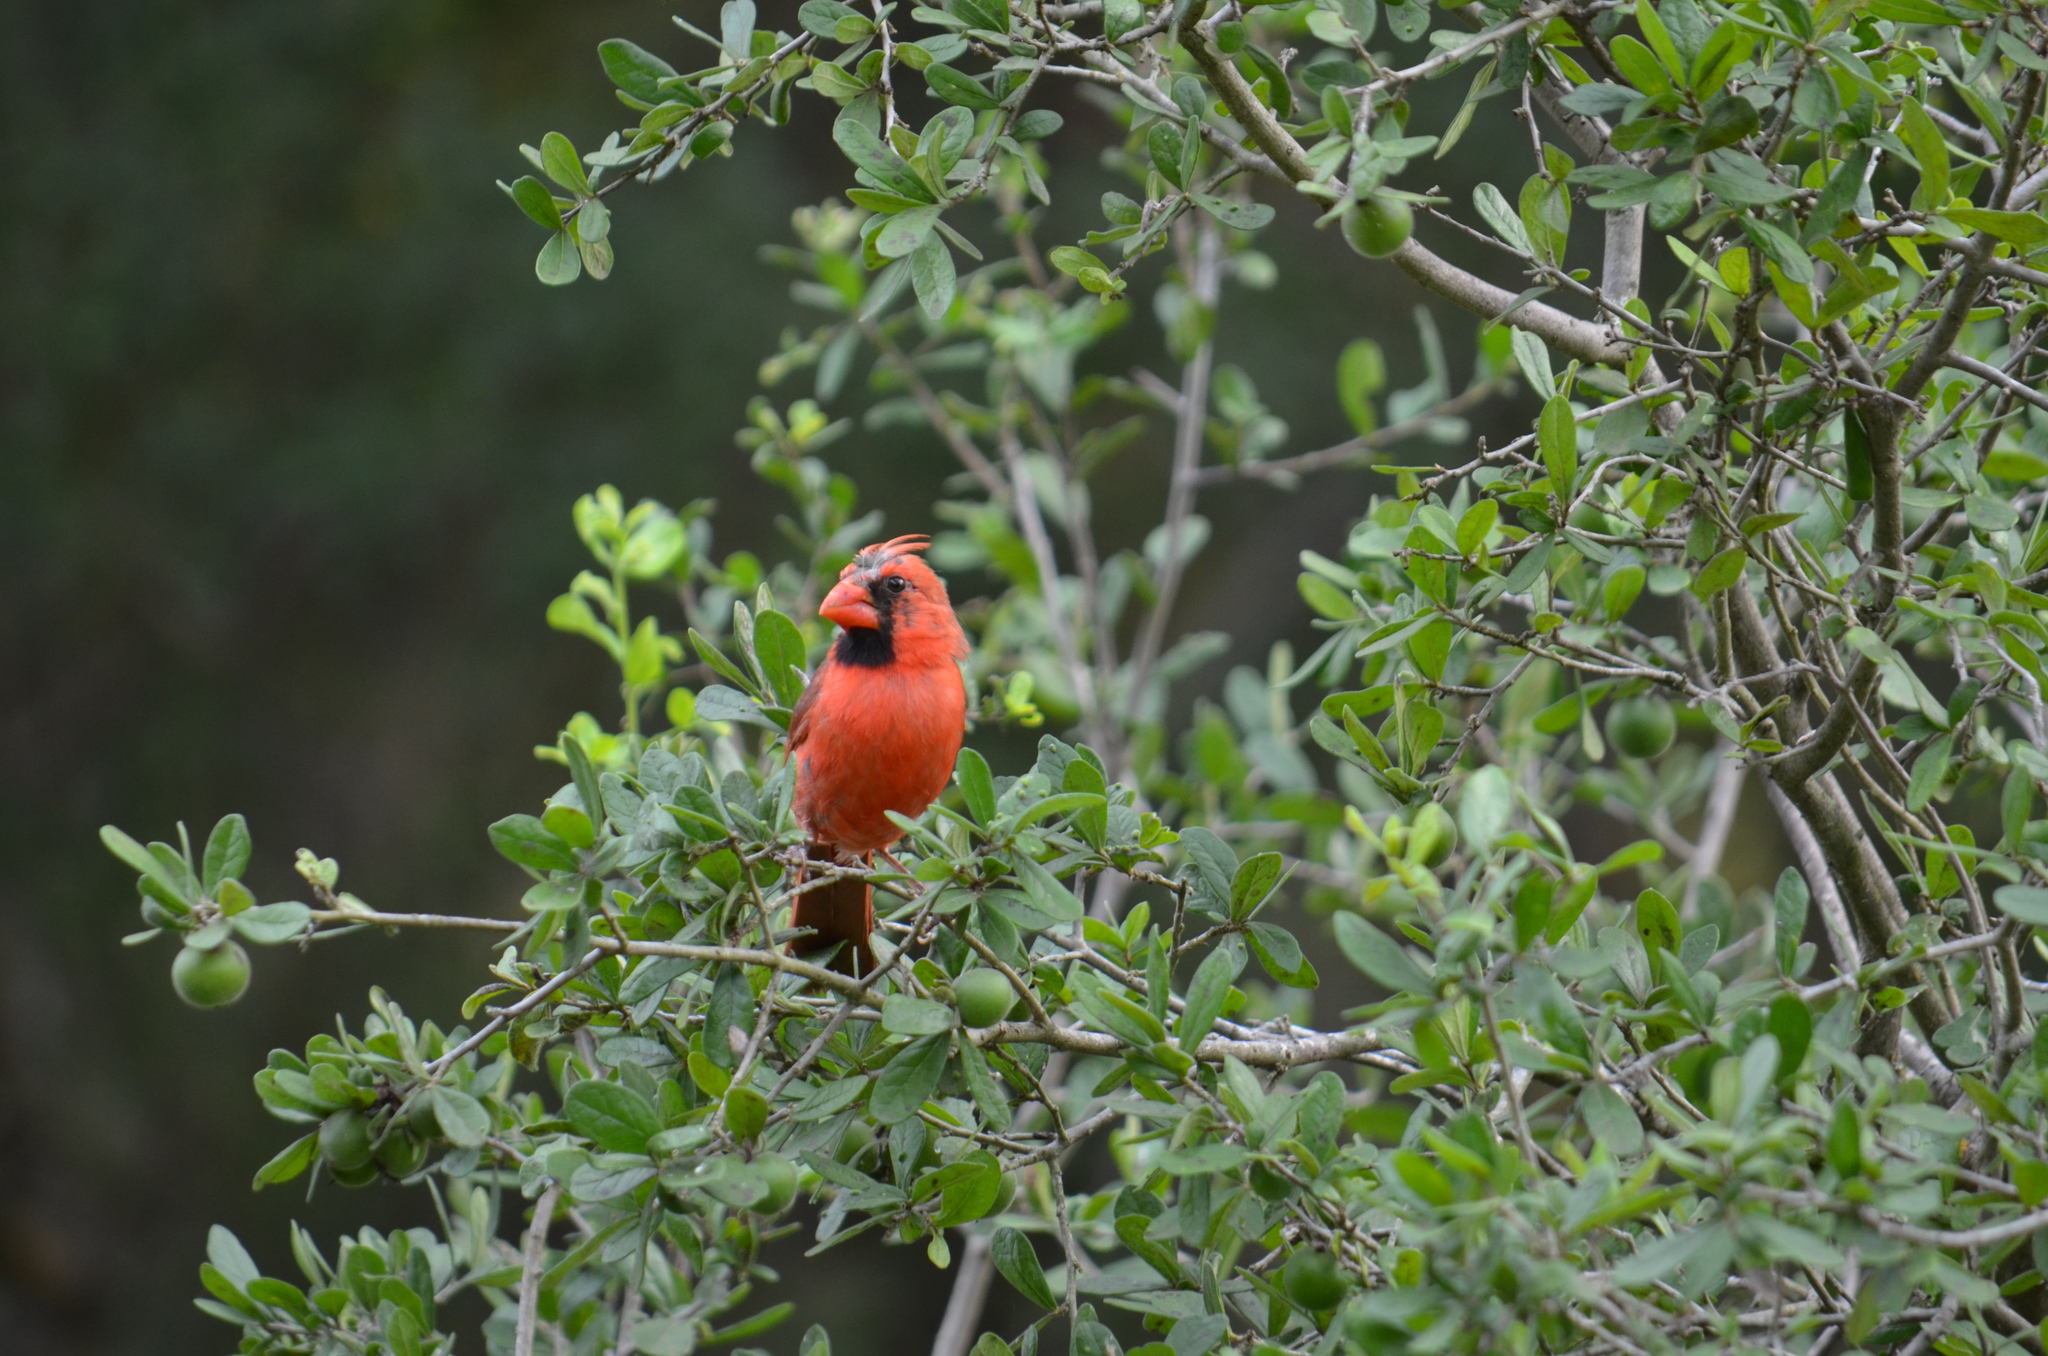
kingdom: Animalia
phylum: Chordata
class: Aves
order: Passeriformes
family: Cardinalidae
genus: Cardinalis
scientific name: Cardinalis cardinalis
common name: Northern cardinal
